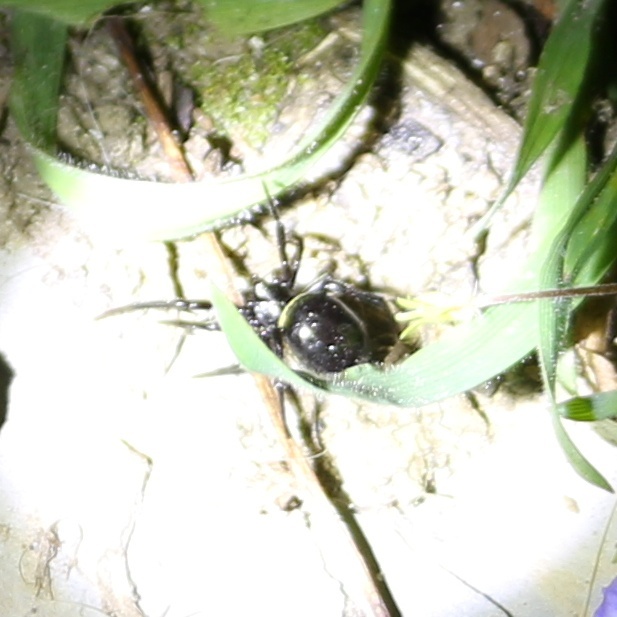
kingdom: Animalia
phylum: Arthropoda
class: Arachnida
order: Araneae
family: Theridiidae
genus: Steatoda
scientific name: Steatoda paykulliana
